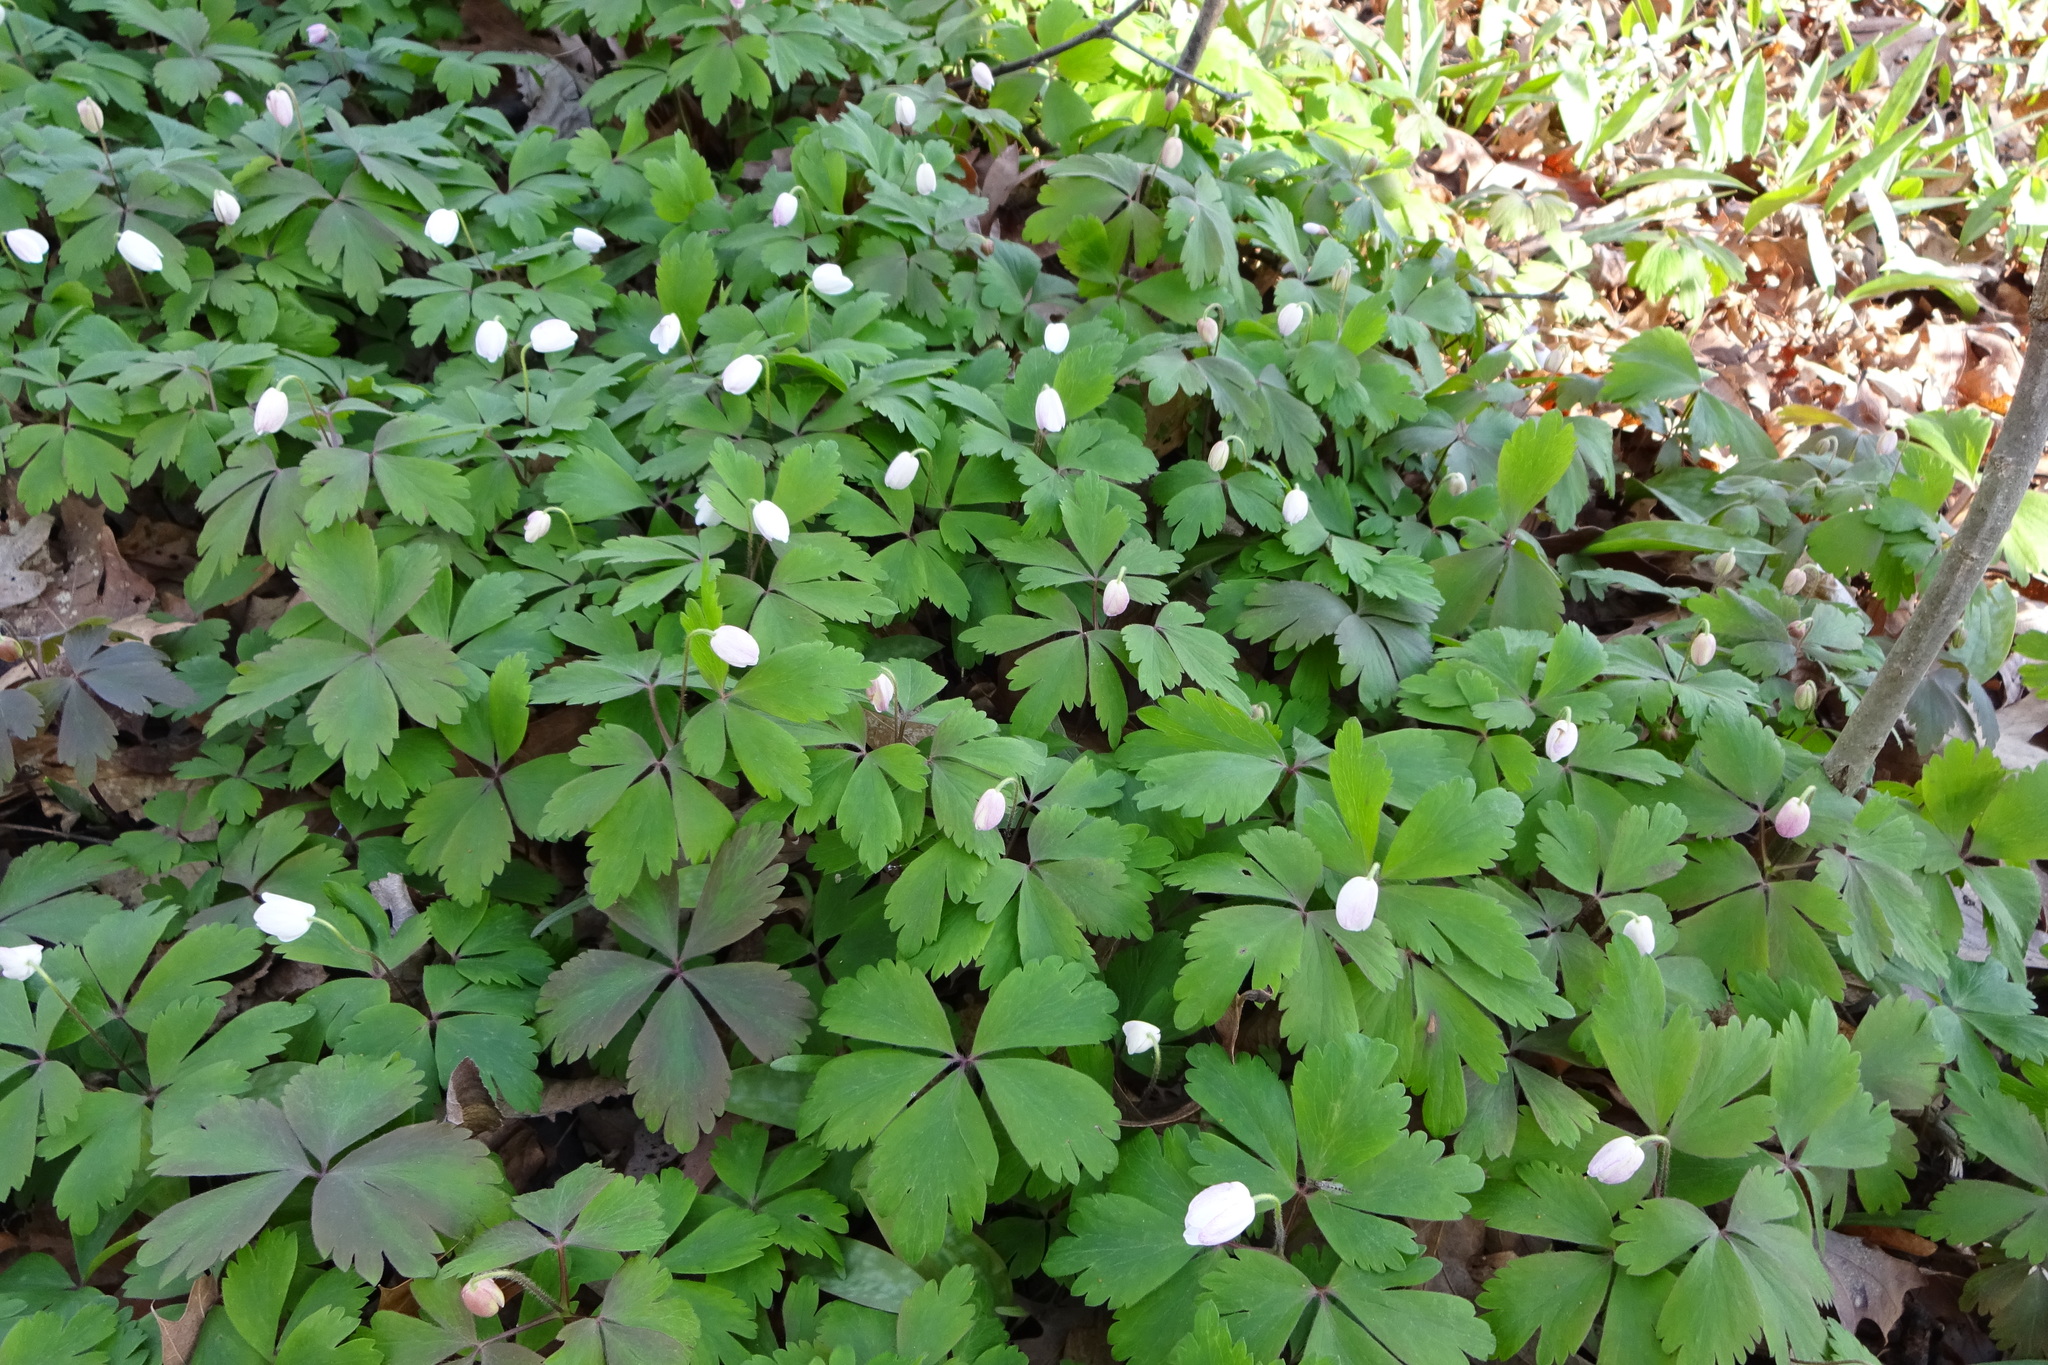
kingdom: Plantae
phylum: Tracheophyta
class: Magnoliopsida
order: Ranunculales
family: Ranunculaceae
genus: Anemone
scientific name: Anemone quinquefolia
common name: Wood anemone
